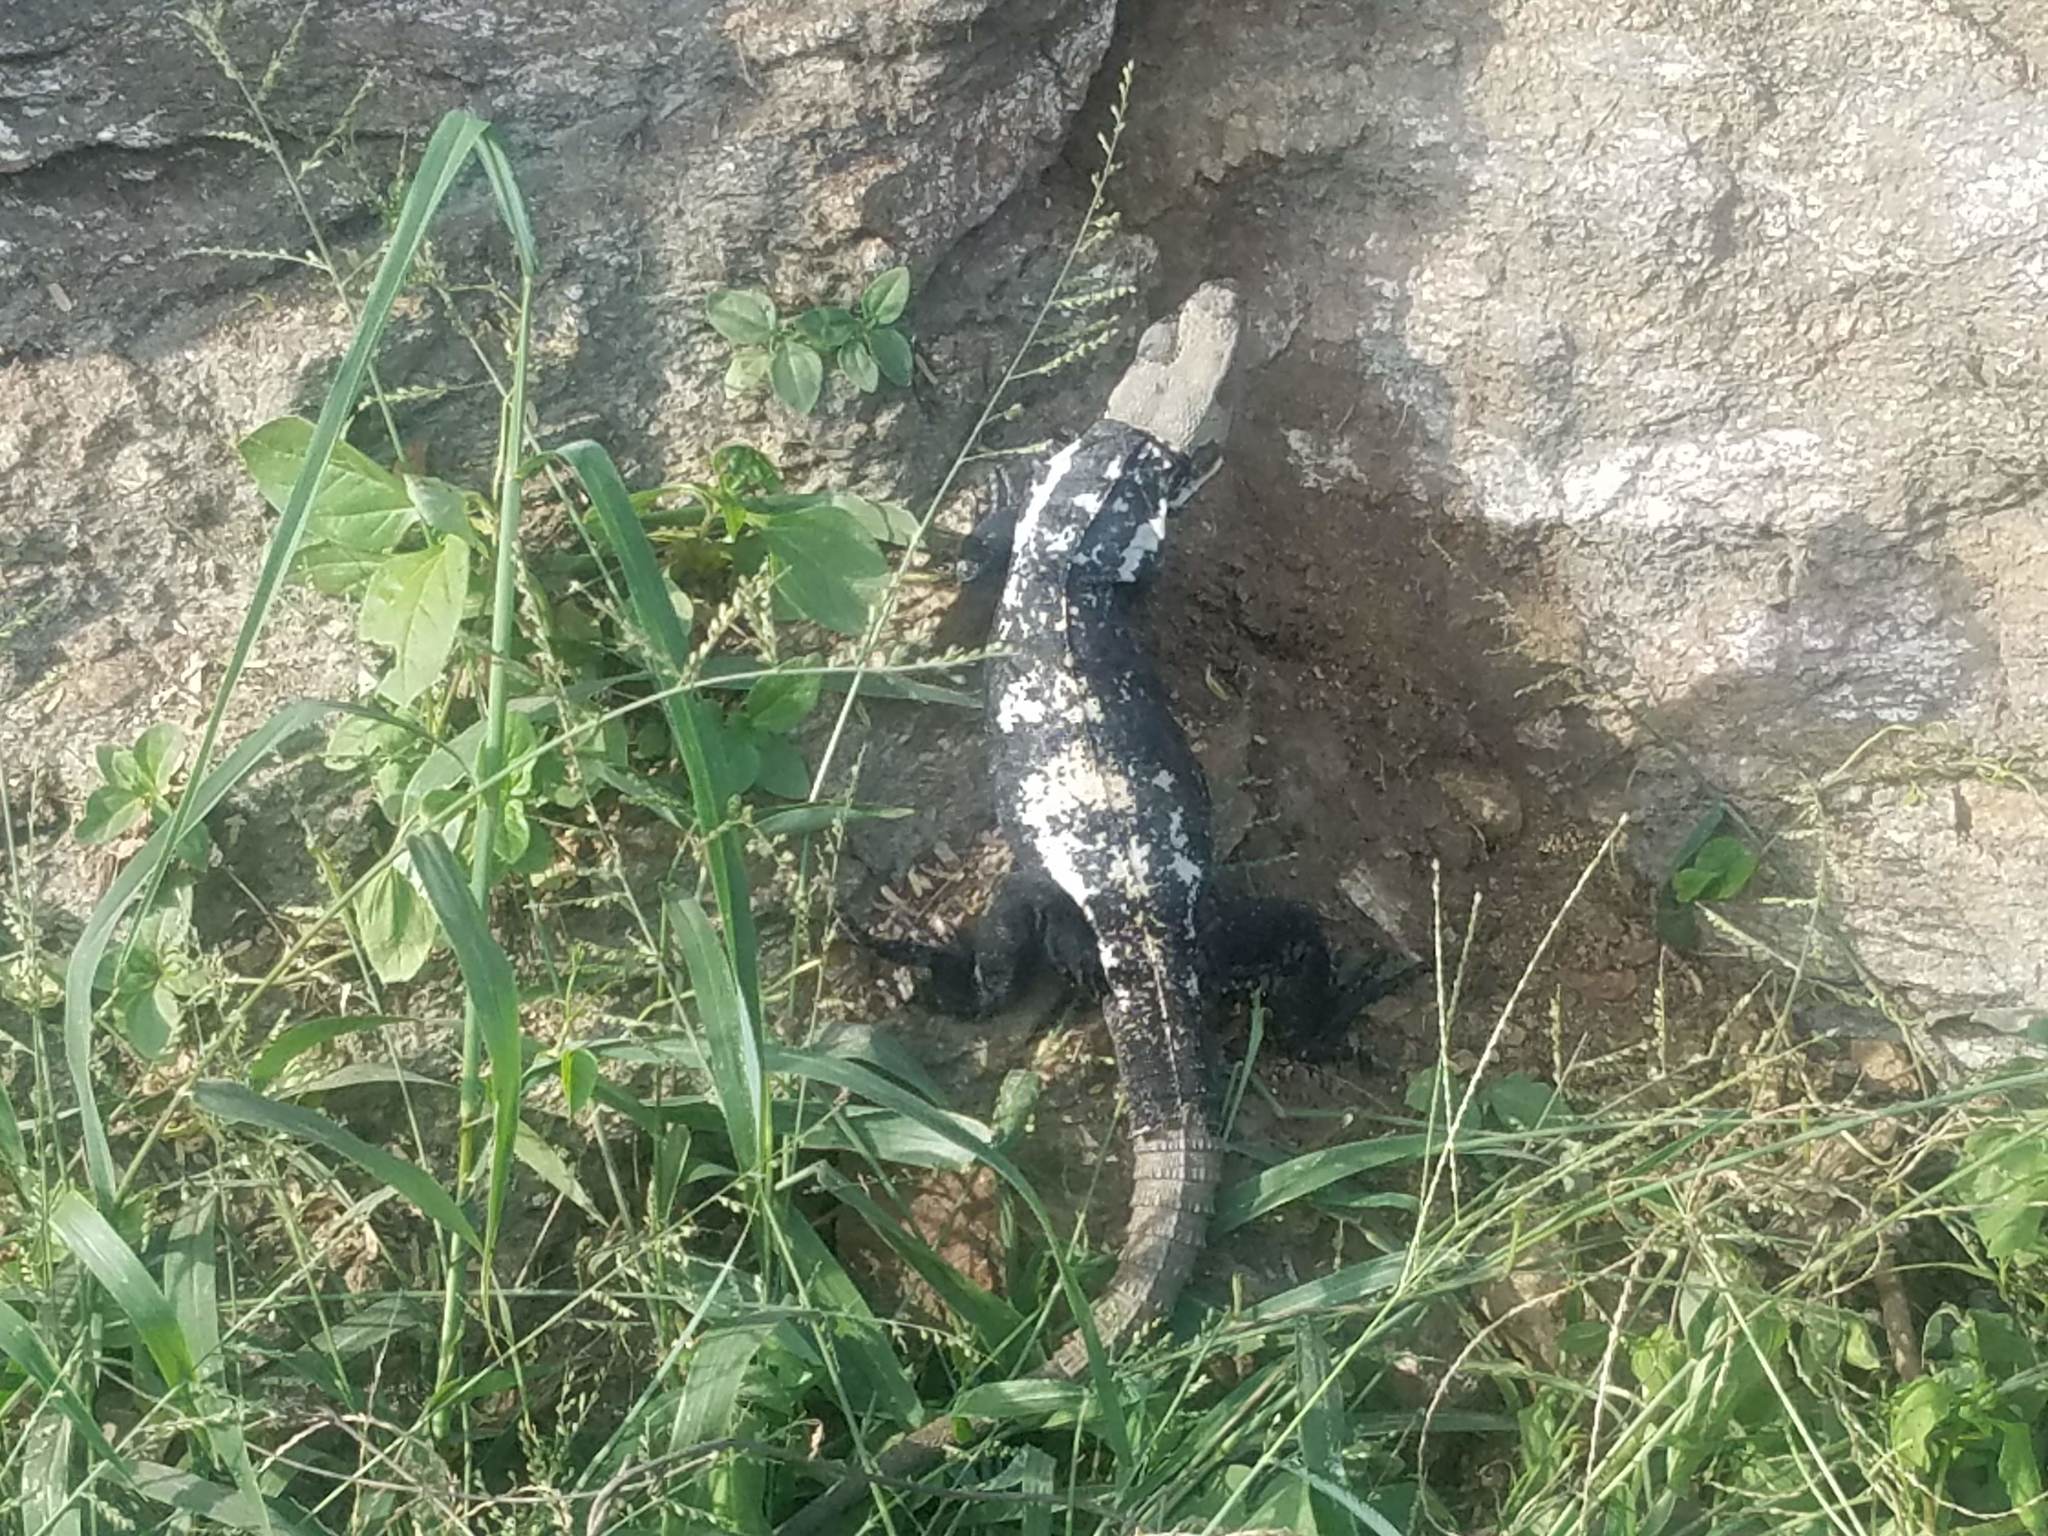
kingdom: Animalia
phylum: Chordata
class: Squamata
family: Iguanidae
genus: Ctenosaura
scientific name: Ctenosaura pectinata
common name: Guerreran spiny-tailed iguana
